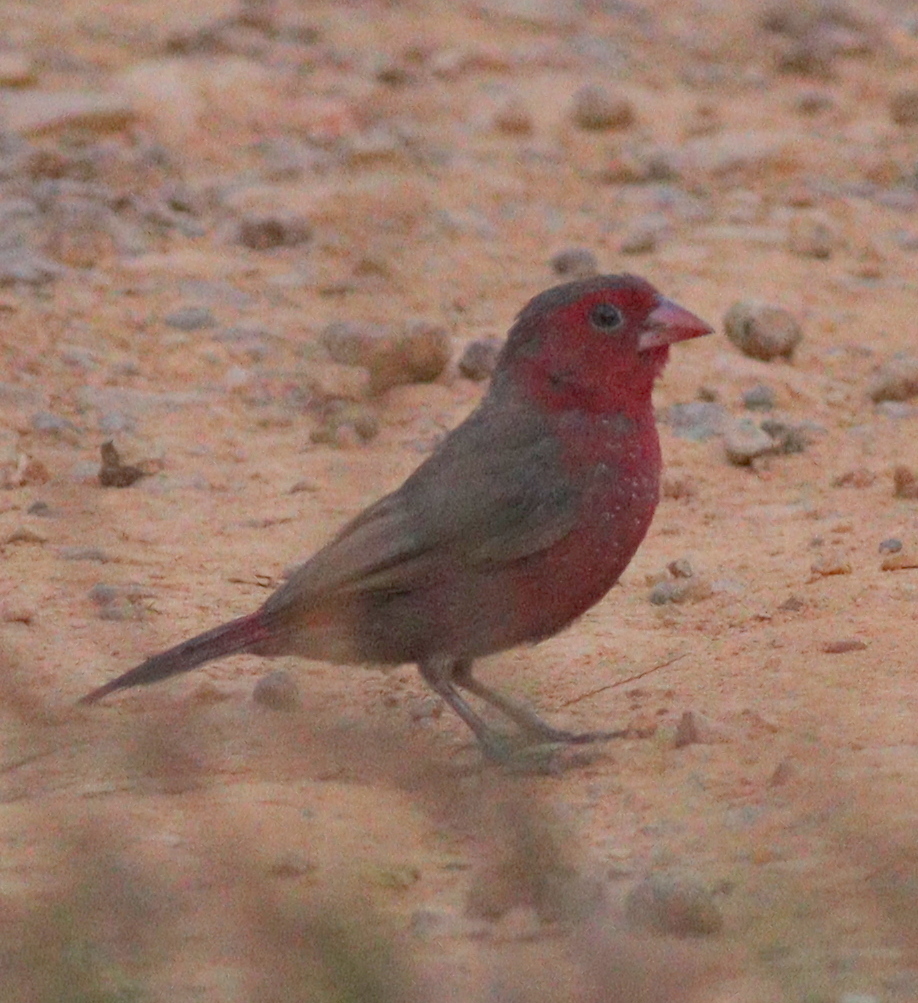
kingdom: Animalia
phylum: Chordata
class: Aves
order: Passeriformes
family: Estrildidae
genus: Lagonosticta
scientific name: Lagonosticta rufopicta
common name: Bar-breasted firefinch
